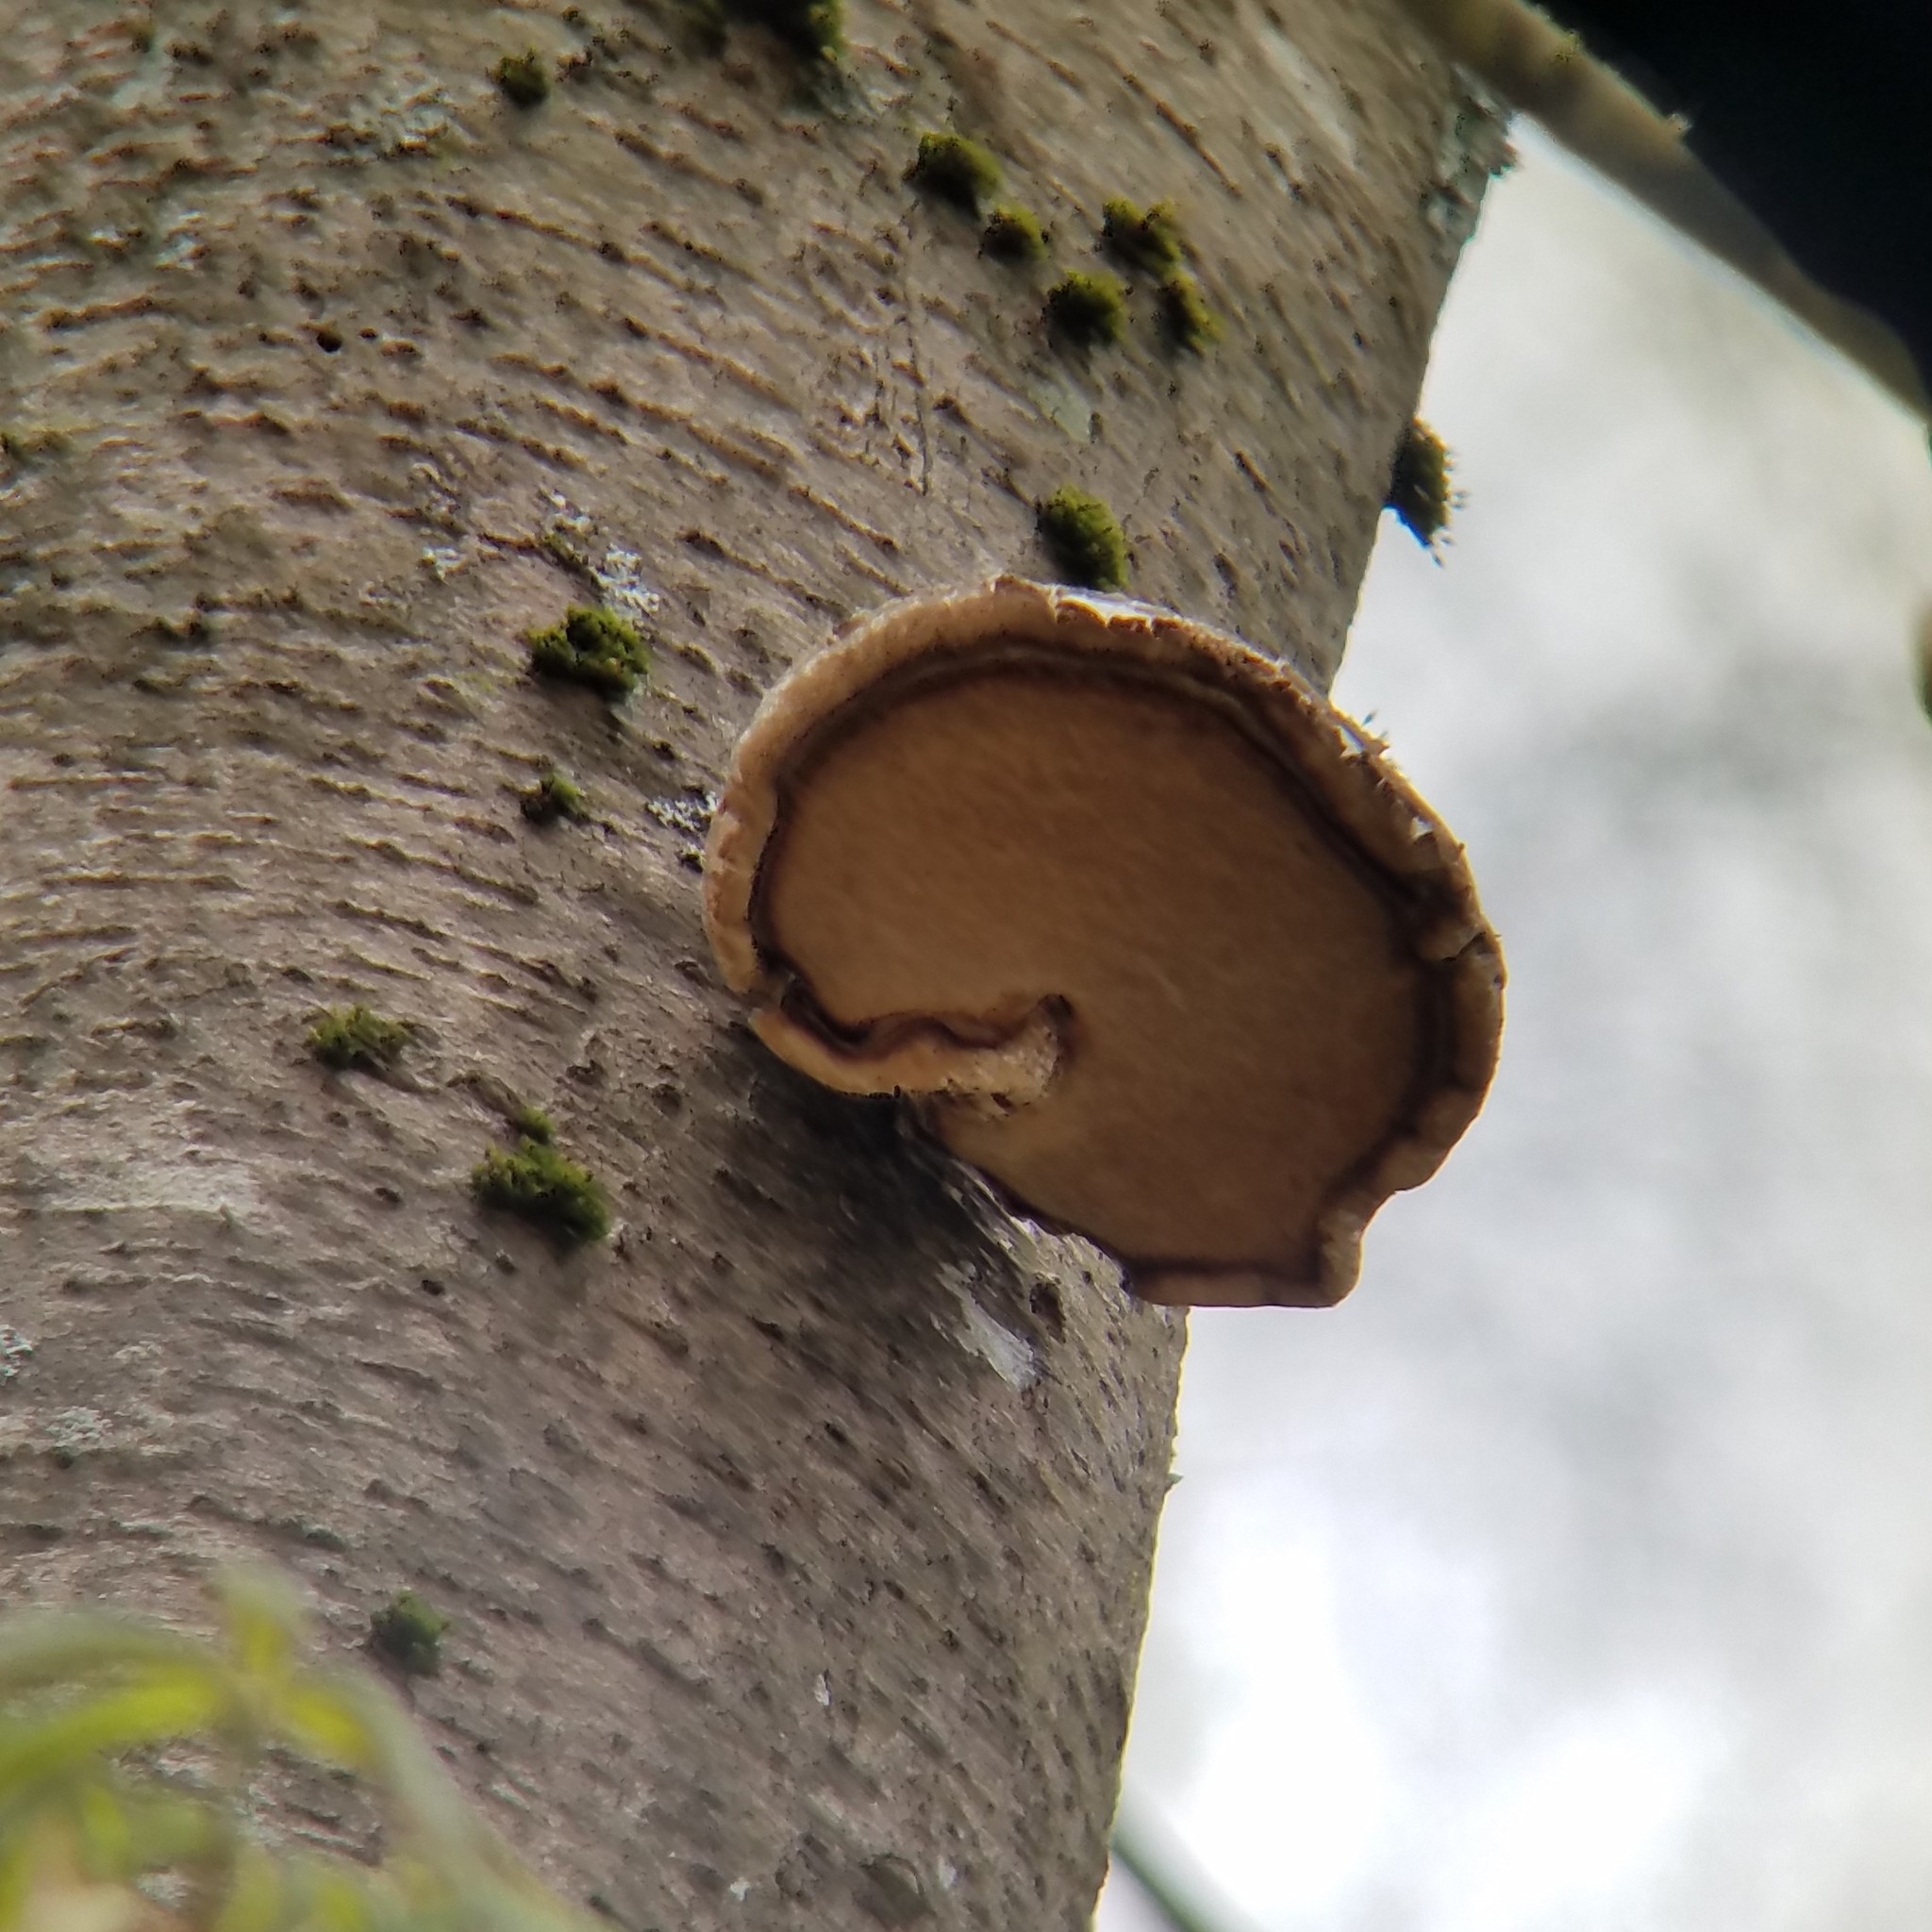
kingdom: Fungi
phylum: Basidiomycota
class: Agaricomycetes
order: Polyporales
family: Fomitopsidaceae
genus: Fomitopsis
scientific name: Fomitopsis betulina
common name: Birch polypore
